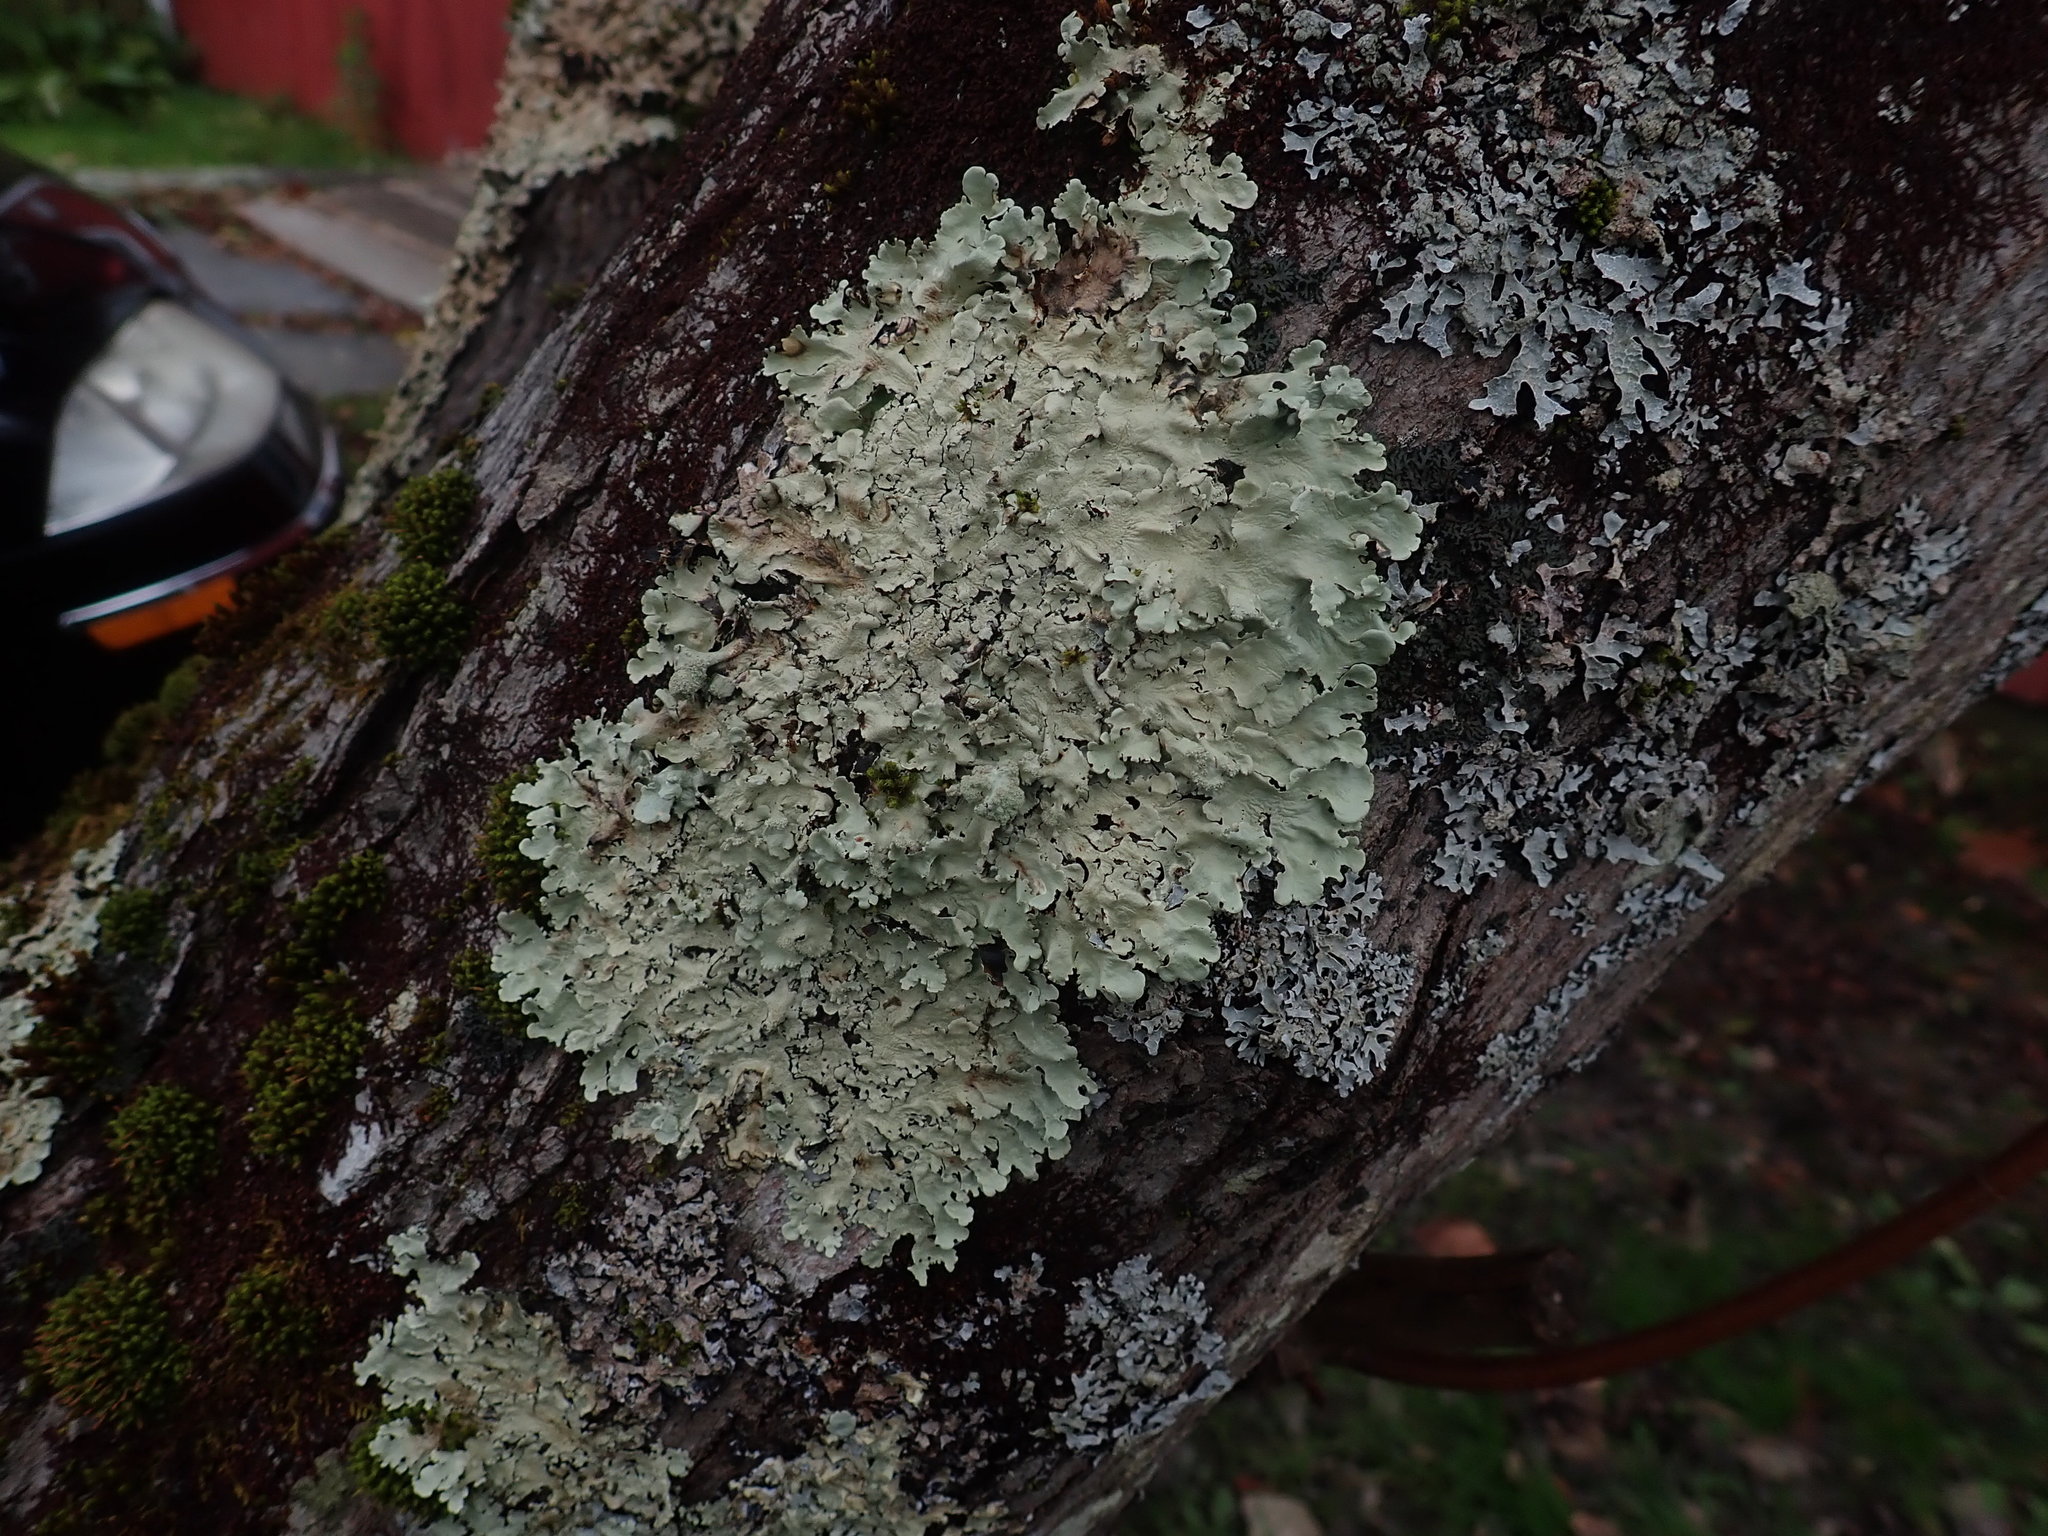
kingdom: Fungi
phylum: Ascomycota
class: Lecanoromycetes
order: Lecanorales
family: Parmeliaceae
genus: Flavoparmelia
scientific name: Flavoparmelia caperata
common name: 40-mile per hour lichen
